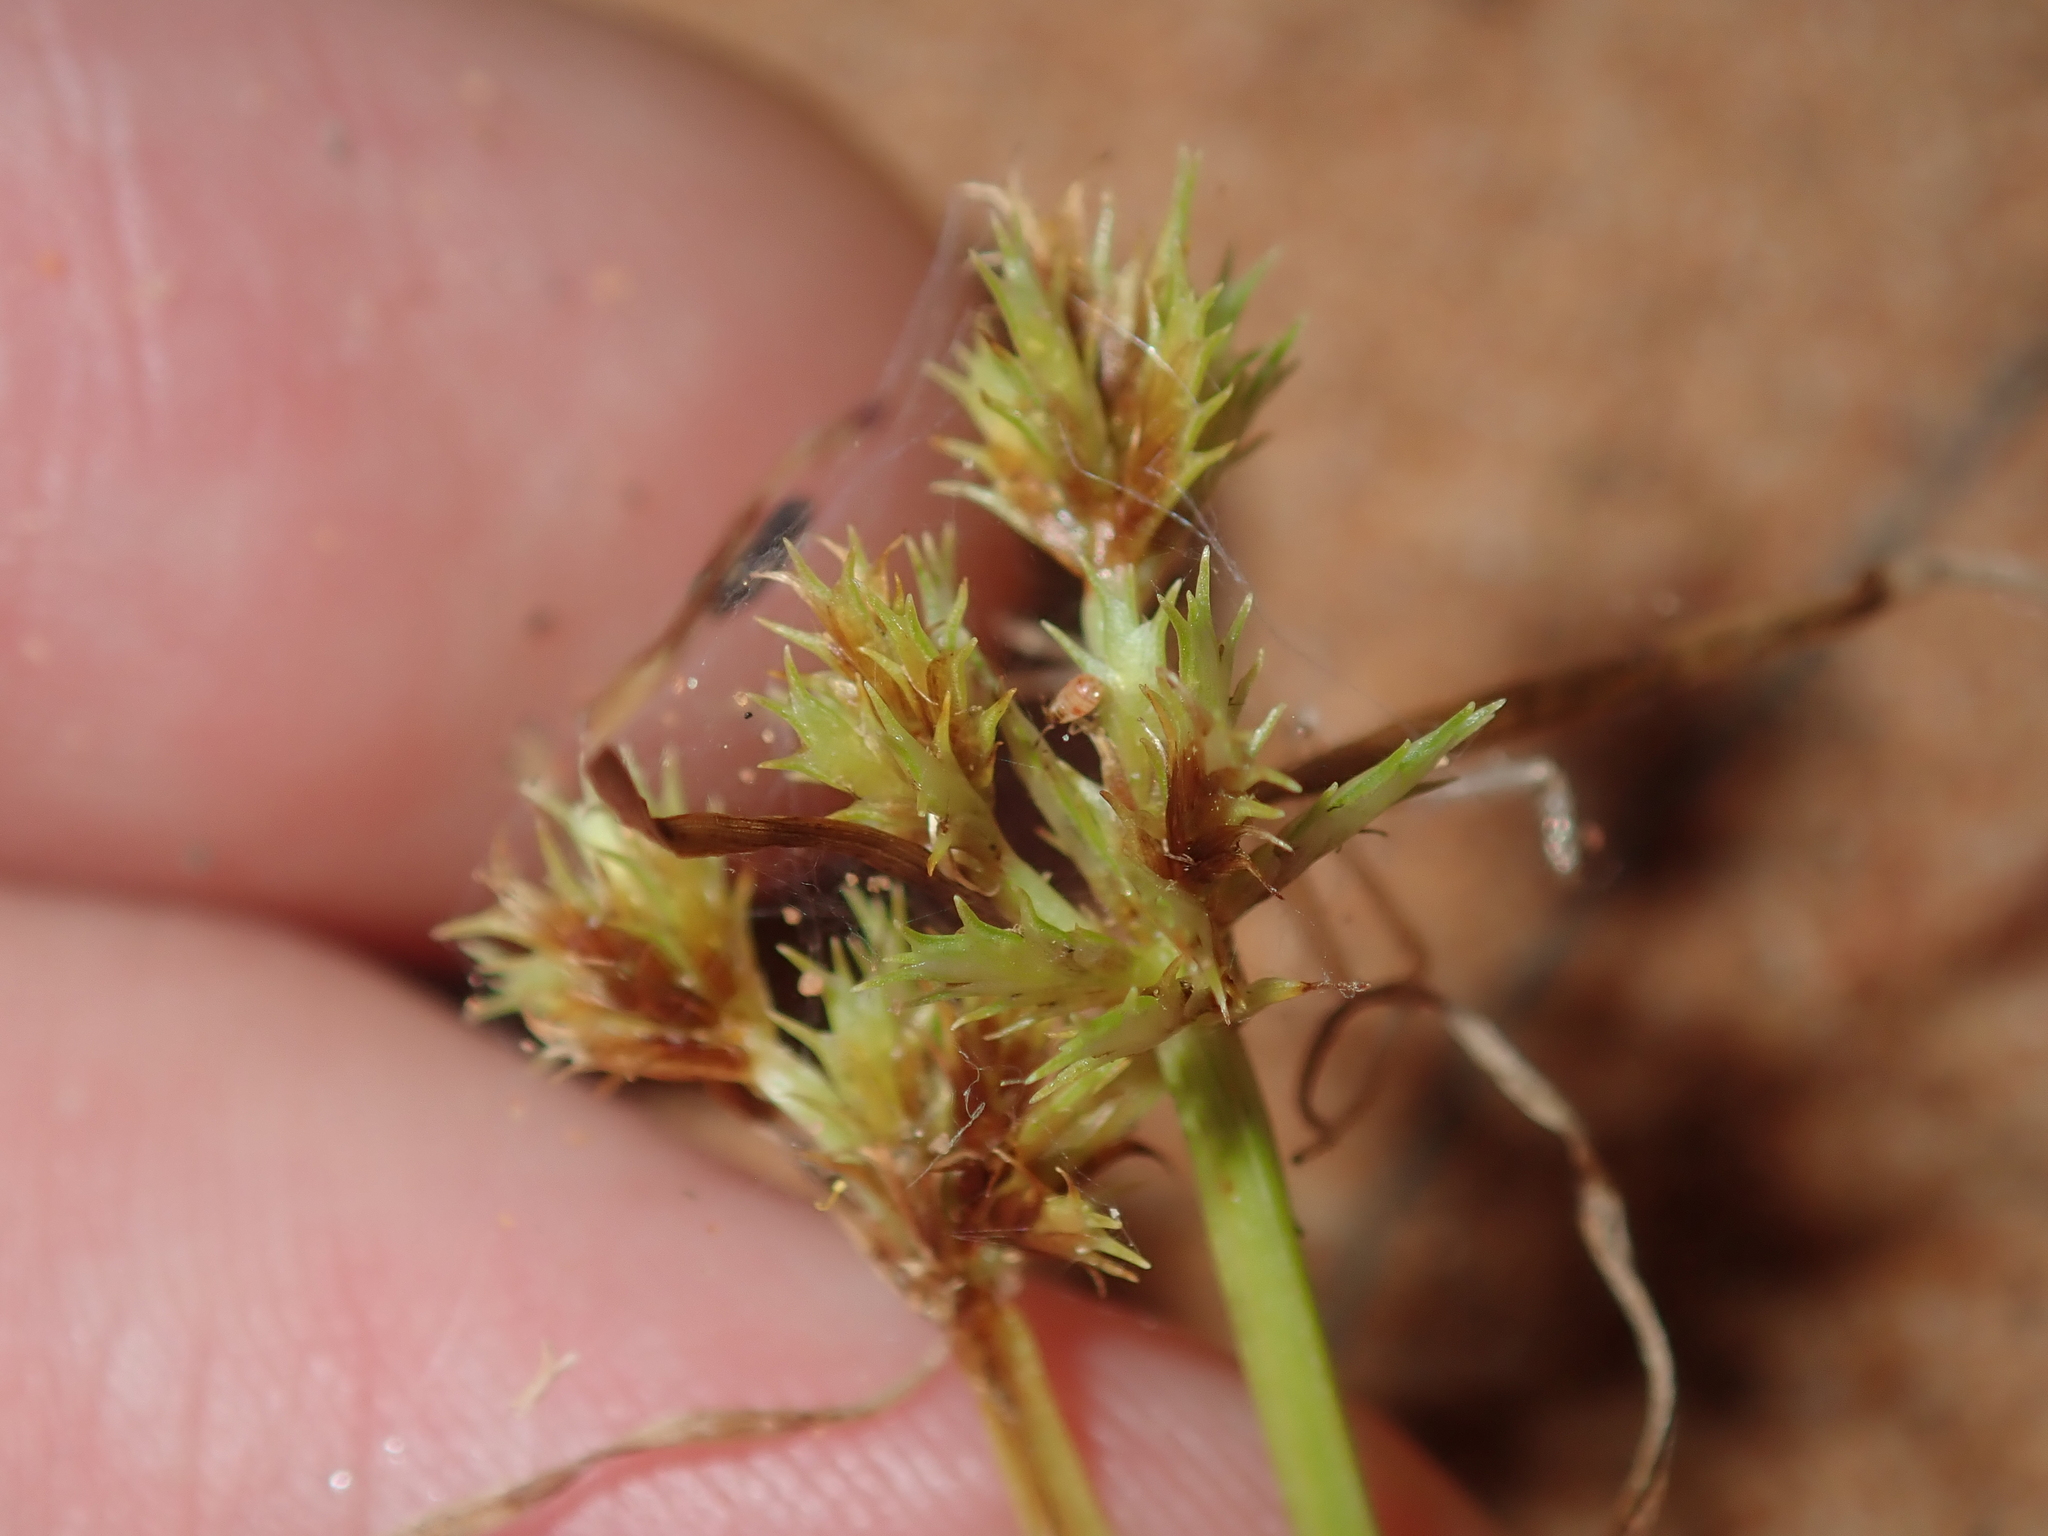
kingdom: Plantae
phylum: Tracheophyta
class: Liliopsida
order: Poales
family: Cyperaceae
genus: Cyperus
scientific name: Cyperus squarrosus
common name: Awned cyperus
